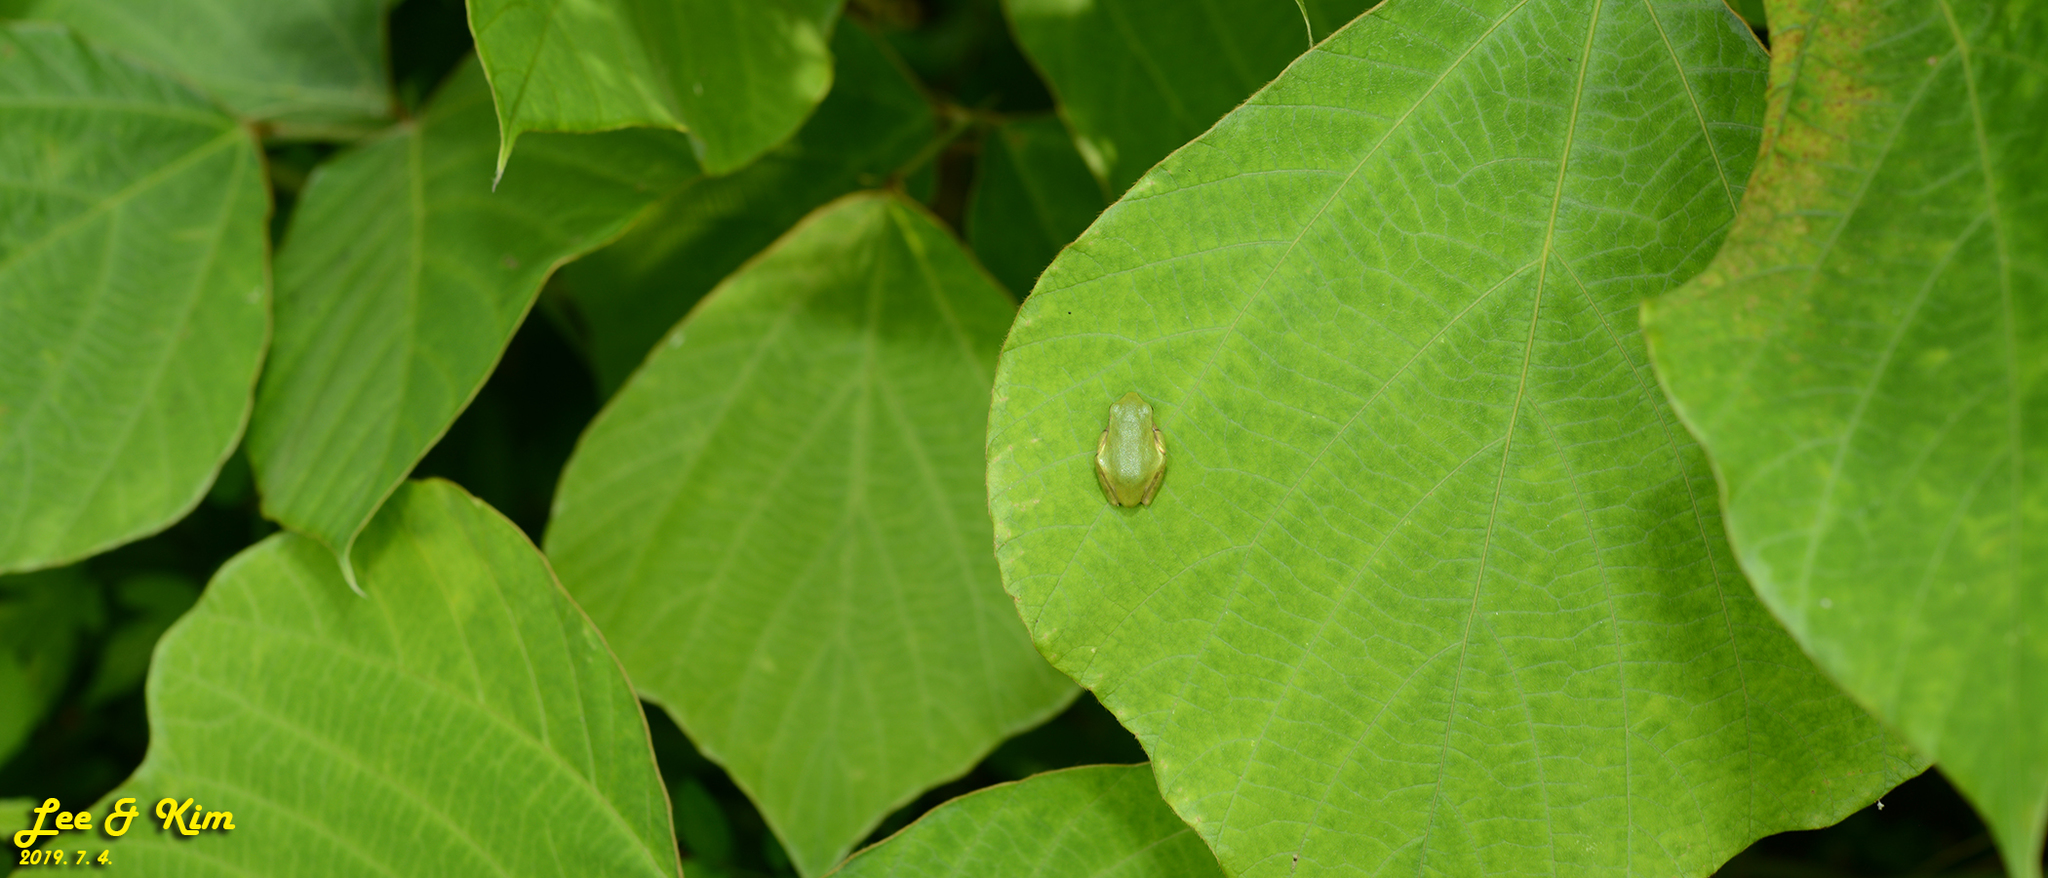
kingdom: Animalia
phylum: Chordata
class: Amphibia
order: Anura
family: Hylidae
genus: Dryophytes
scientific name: Dryophytes japonicus
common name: Japanese treefrog
